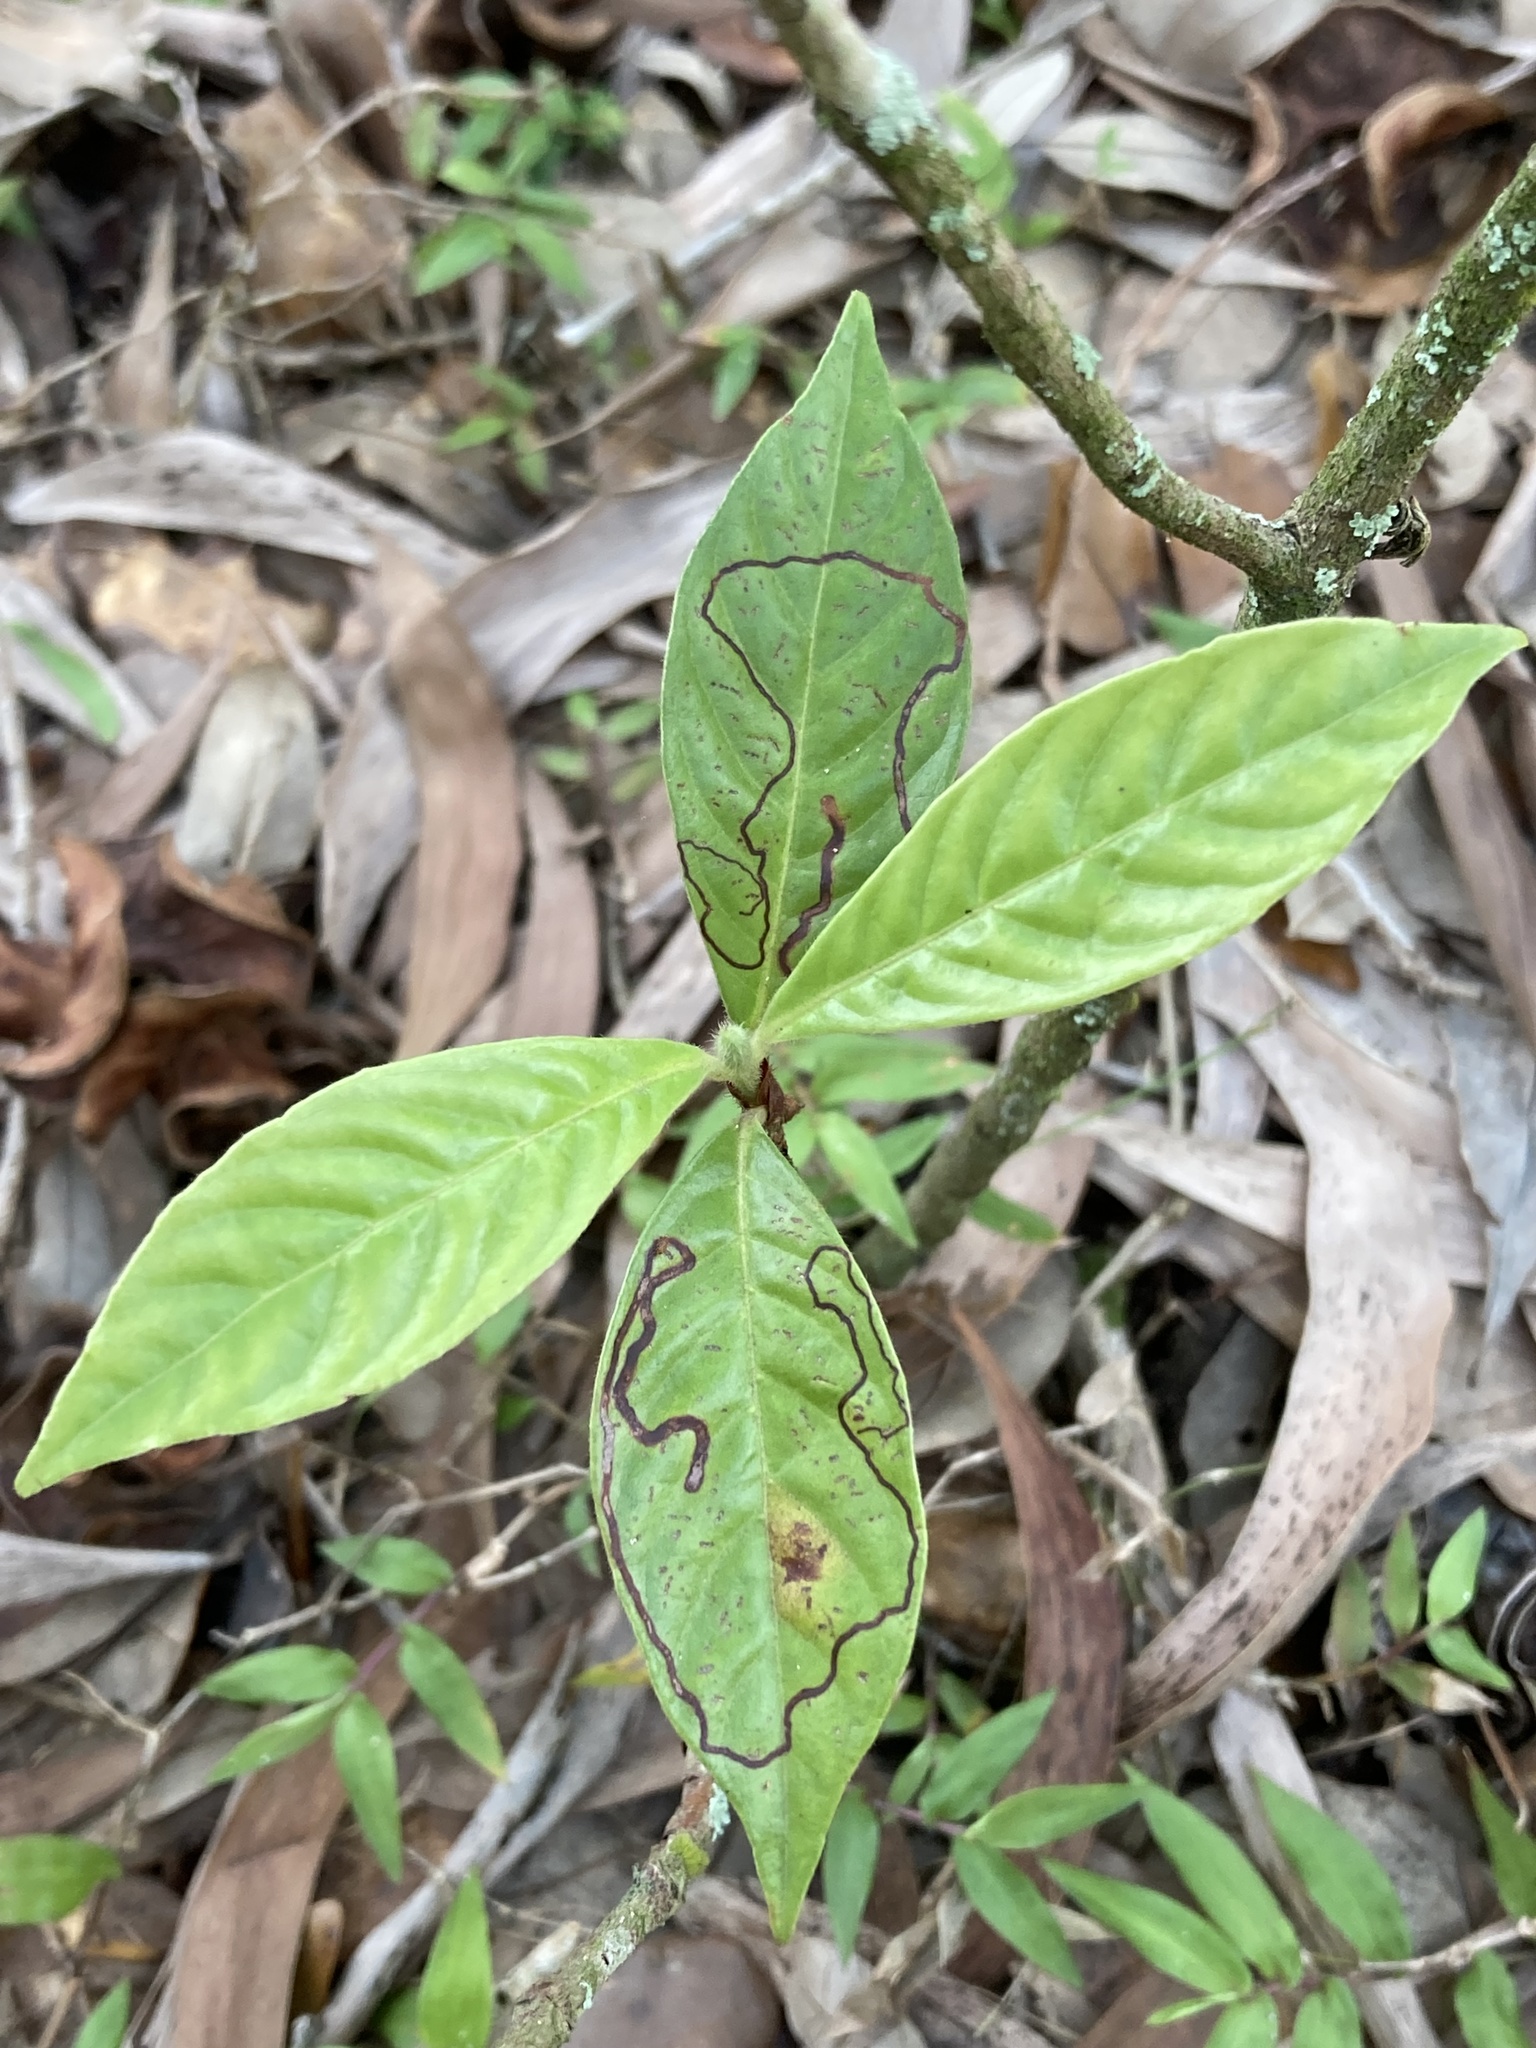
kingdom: Plantae
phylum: Tracheophyta
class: Magnoliopsida
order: Gentianales
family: Rubiaceae
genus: Psychotria
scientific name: Psychotria nervosa
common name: Bastard cankerberry
